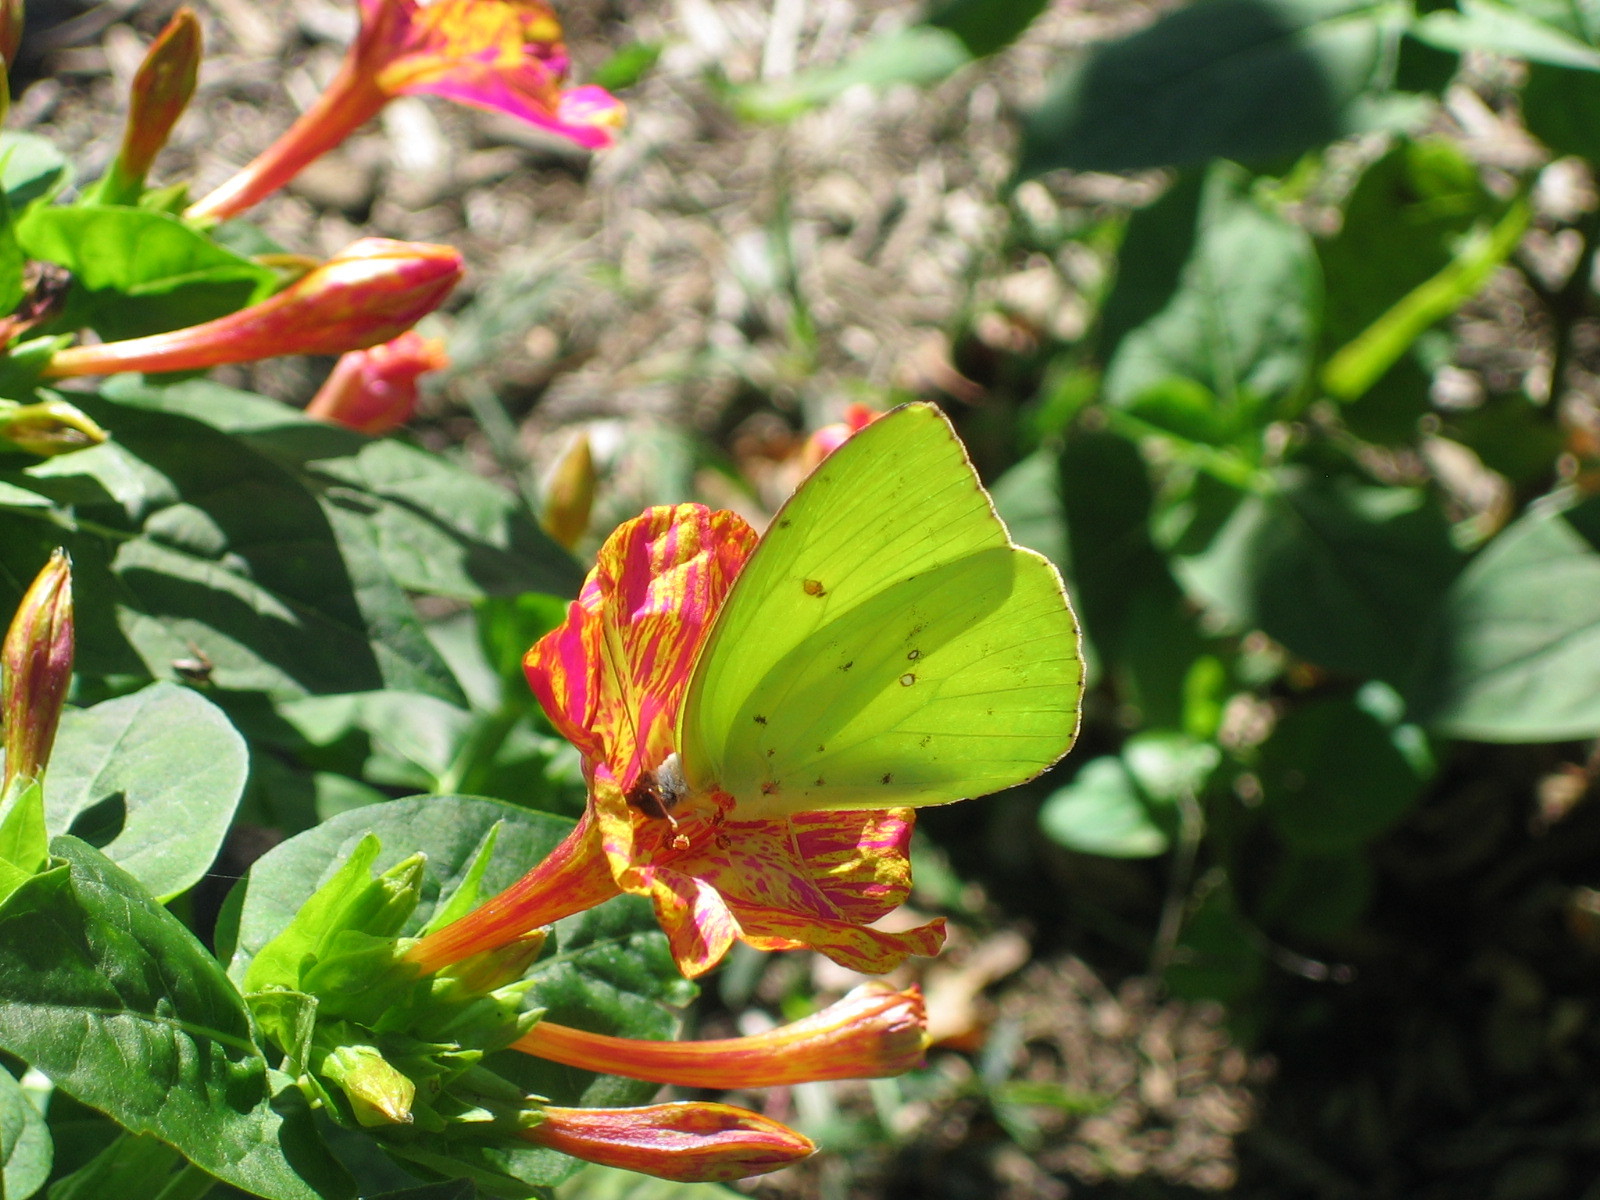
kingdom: Animalia
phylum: Arthropoda
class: Insecta
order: Lepidoptera
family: Pieridae
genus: Phoebis
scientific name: Phoebis sennae
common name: Cloudless sulphur
